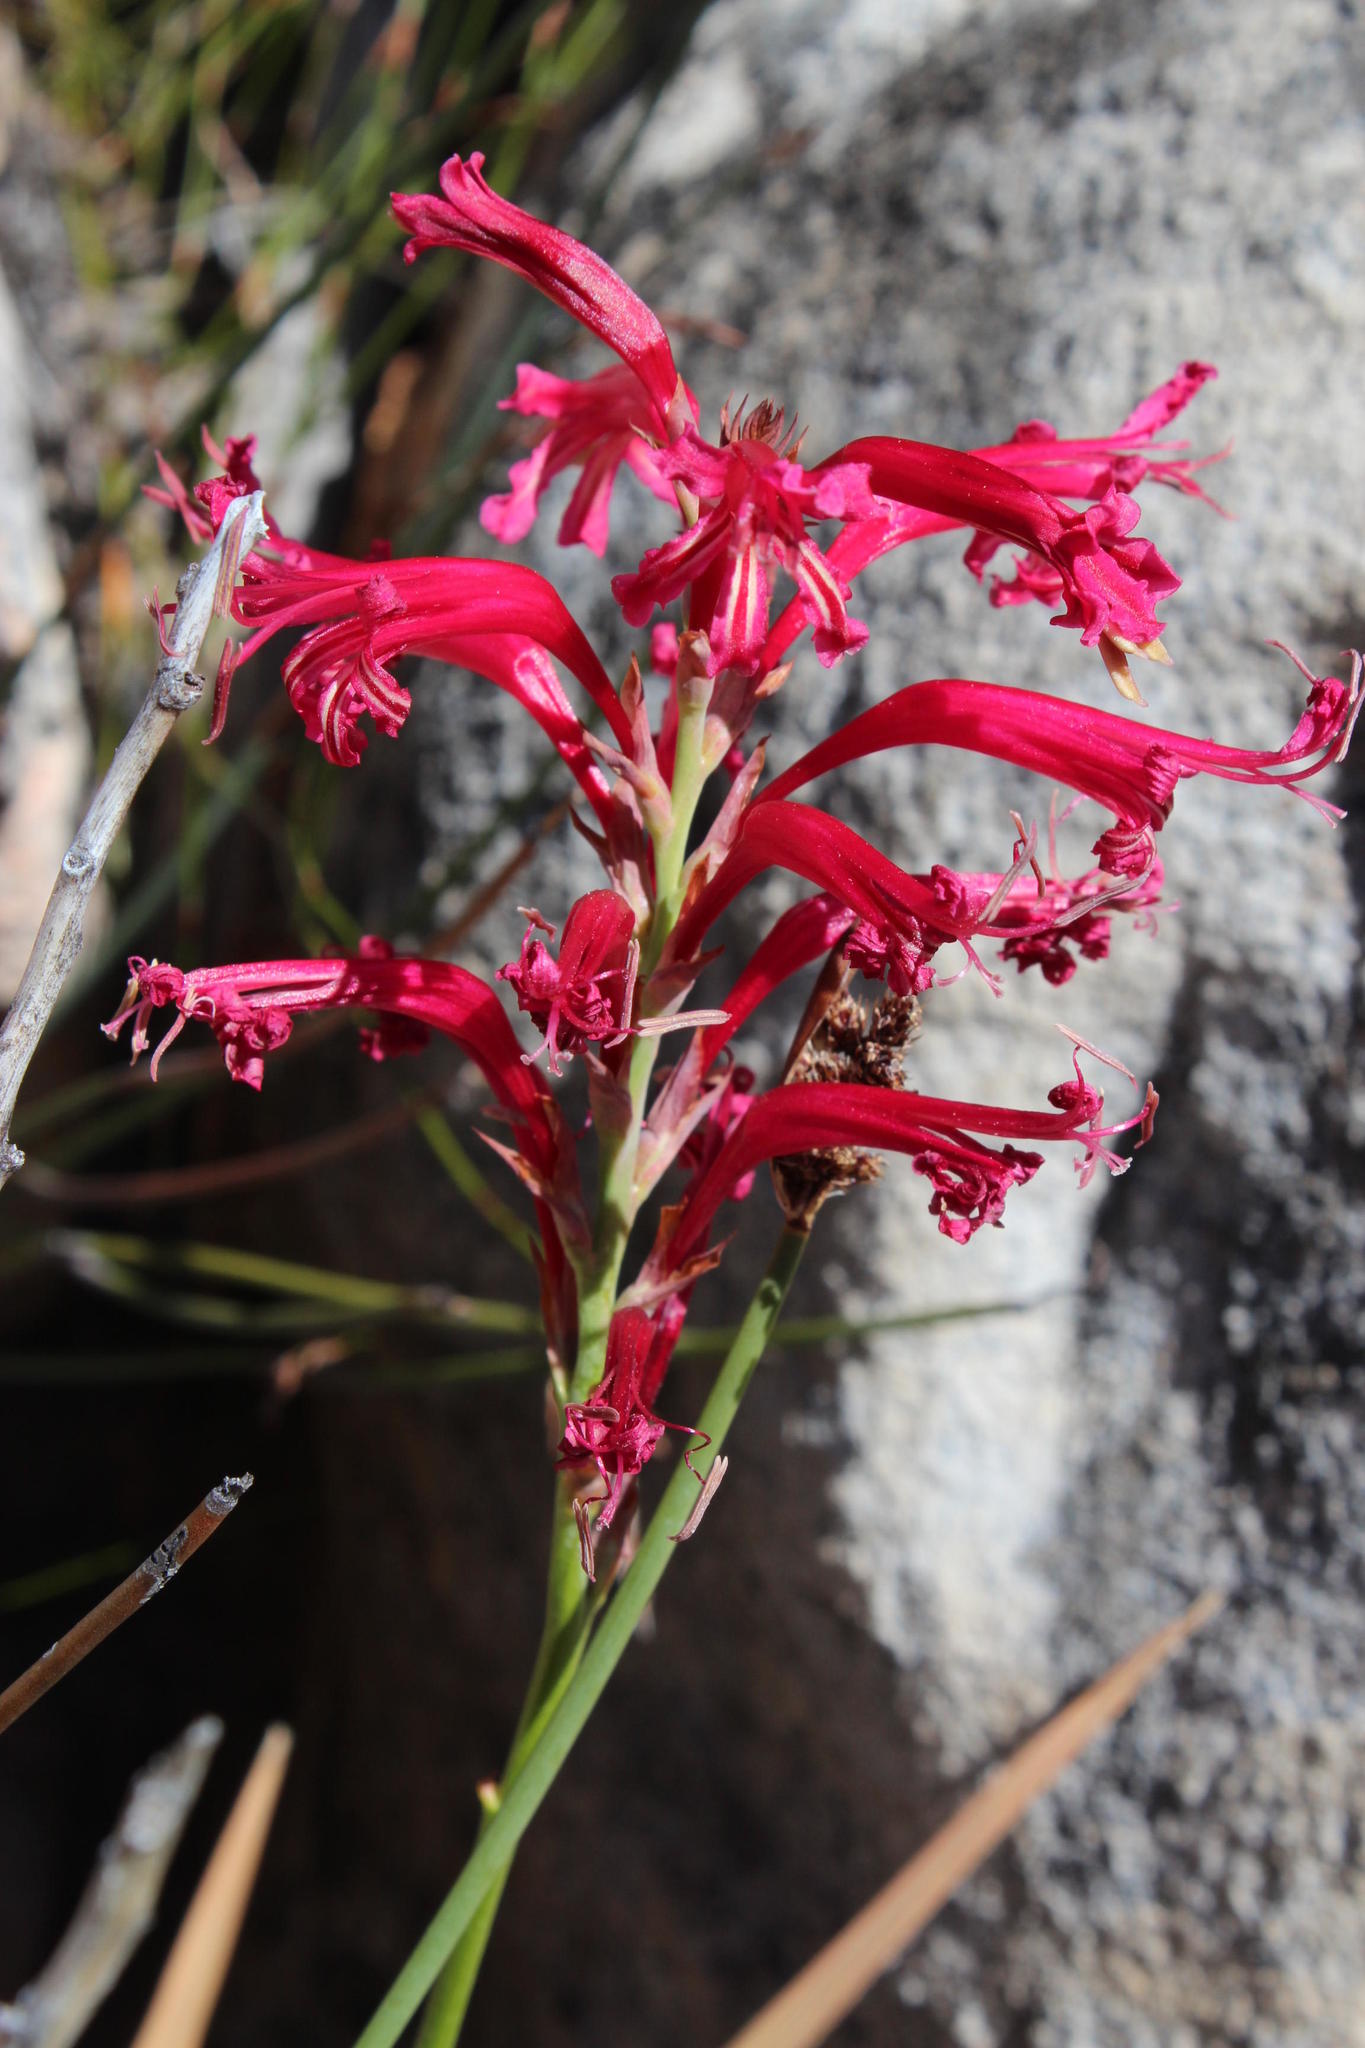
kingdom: Plantae
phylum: Tracheophyta
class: Liliopsida
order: Asparagales
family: Iridaceae
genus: Tritoniopsis
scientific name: Tritoniopsis antholyza
